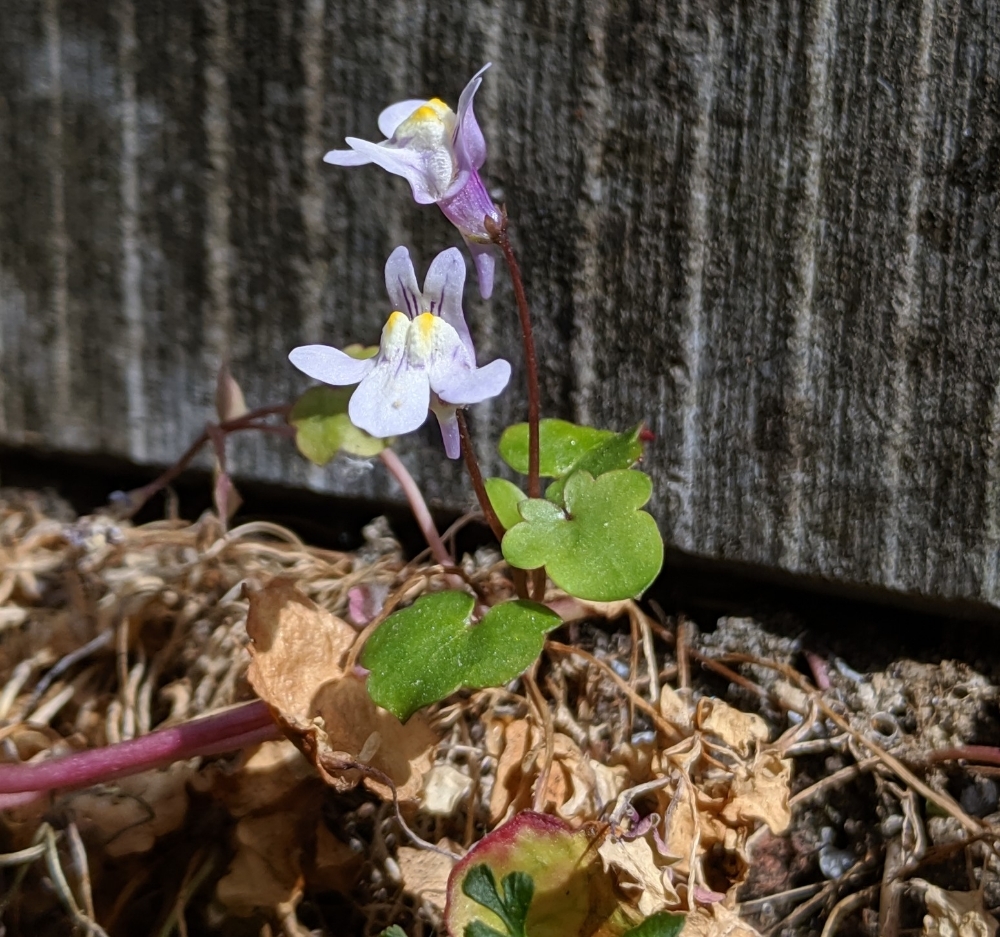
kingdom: Plantae
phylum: Tracheophyta
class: Magnoliopsida
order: Lamiales
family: Plantaginaceae
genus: Cymbalaria
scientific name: Cymbalaria muralis
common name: Ivy-leaved toadflax
